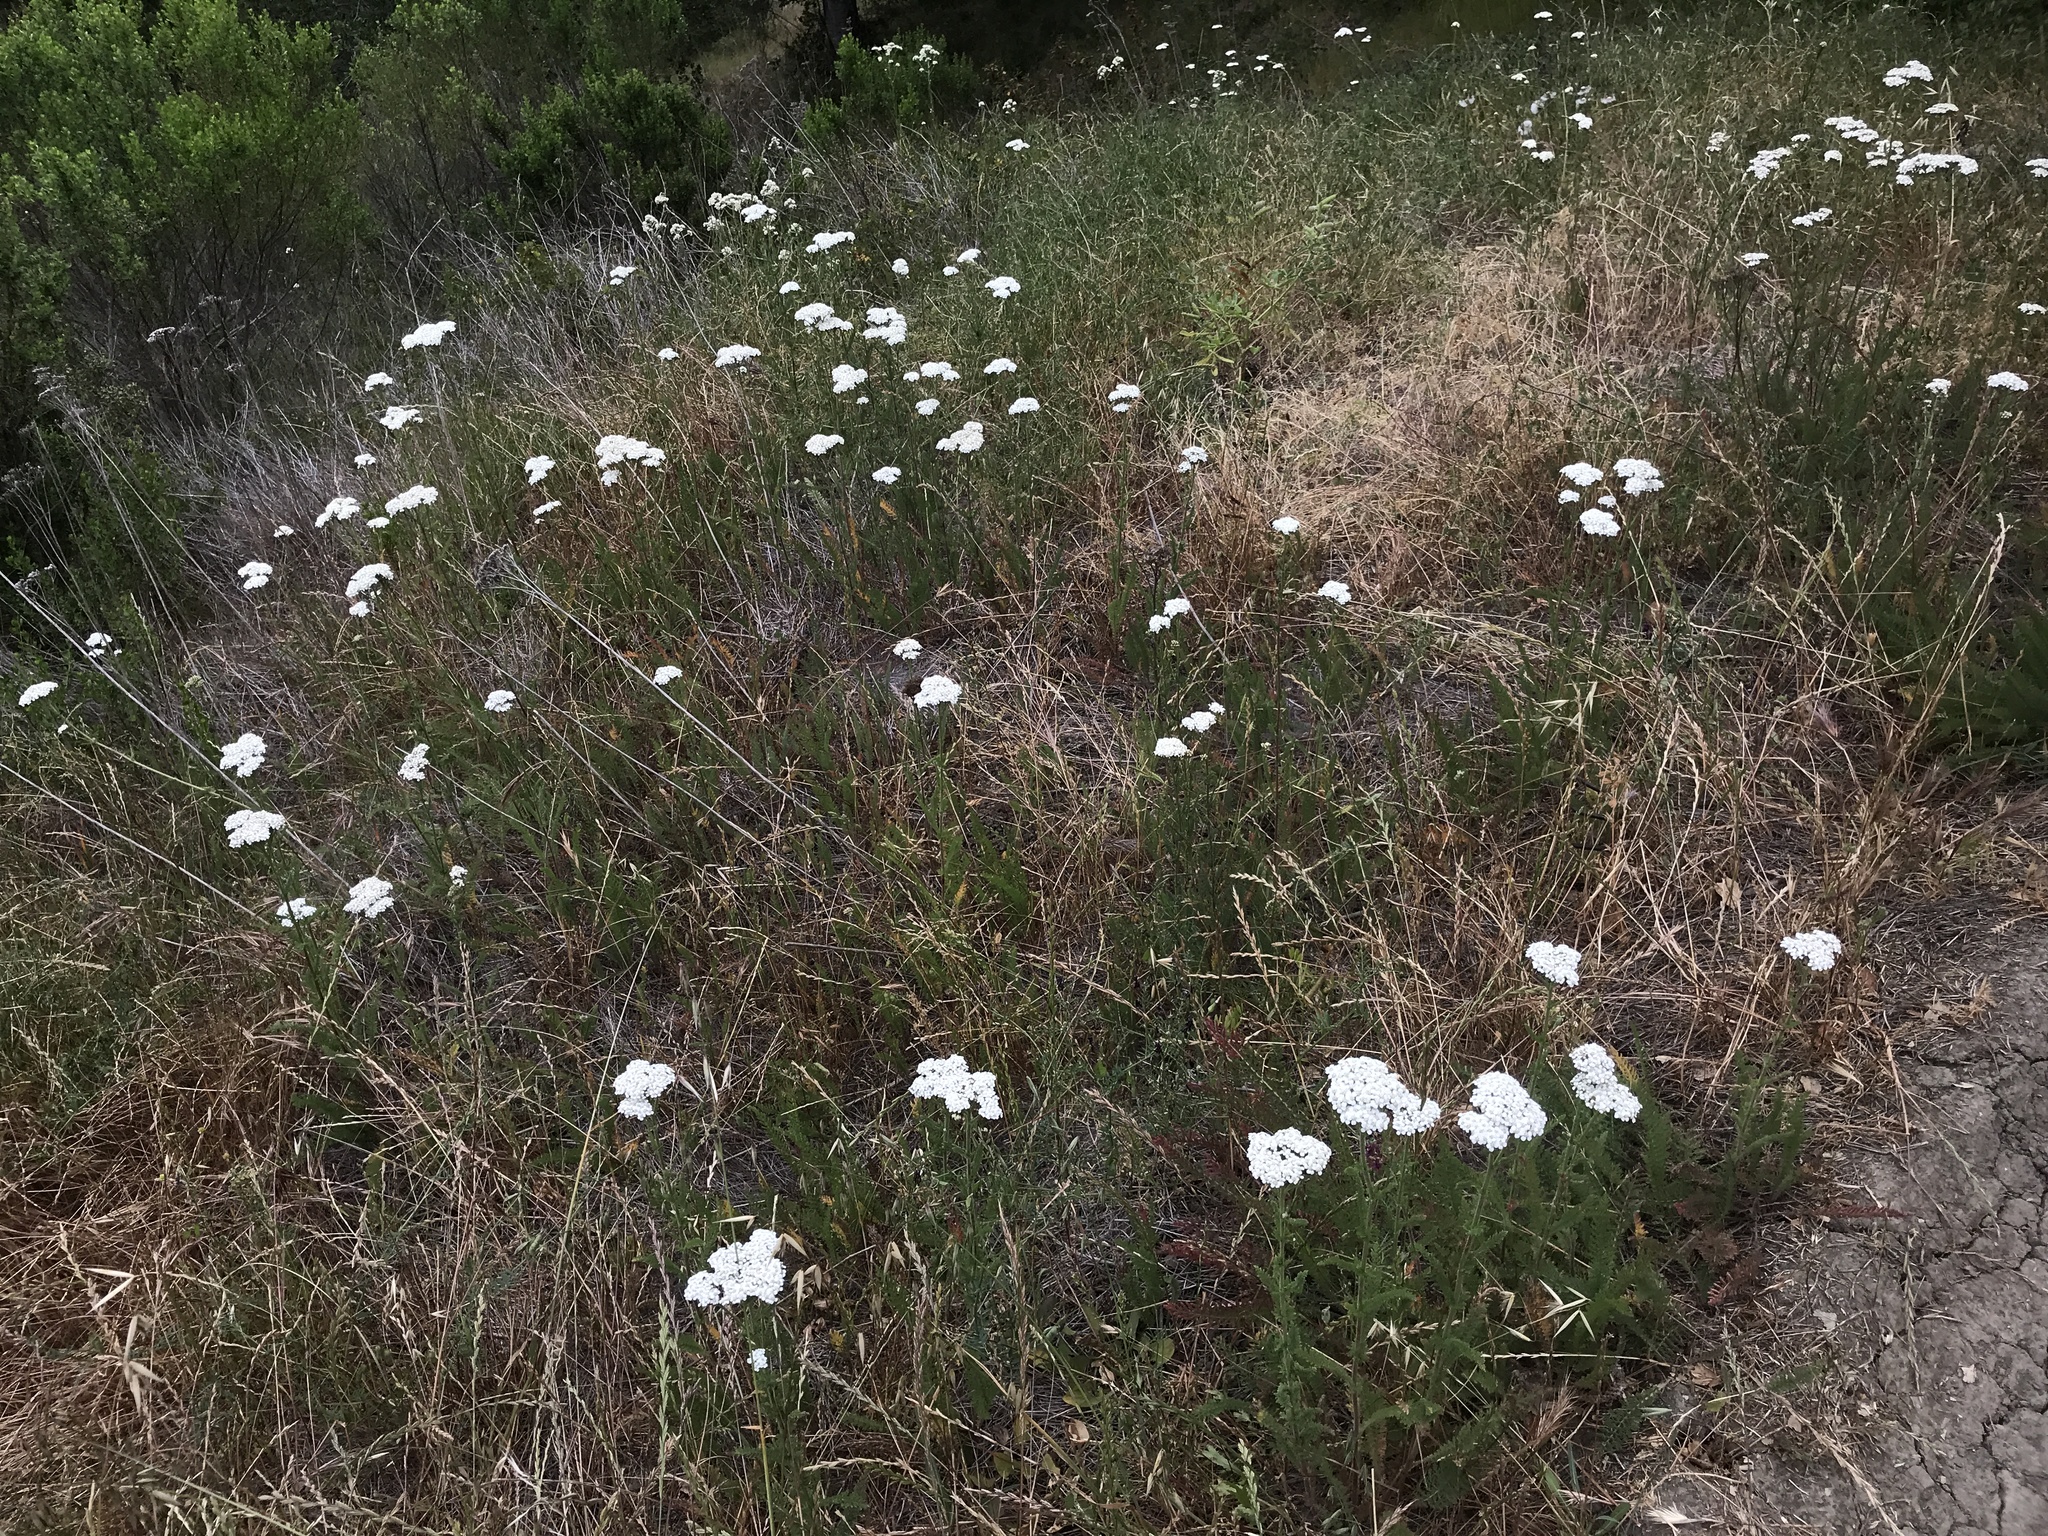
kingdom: Plantae
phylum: Tracheophyta
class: Magnoliopsida
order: Asterales
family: Asteraceae
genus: Achillea
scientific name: Achillea millefolium
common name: Yarrow
